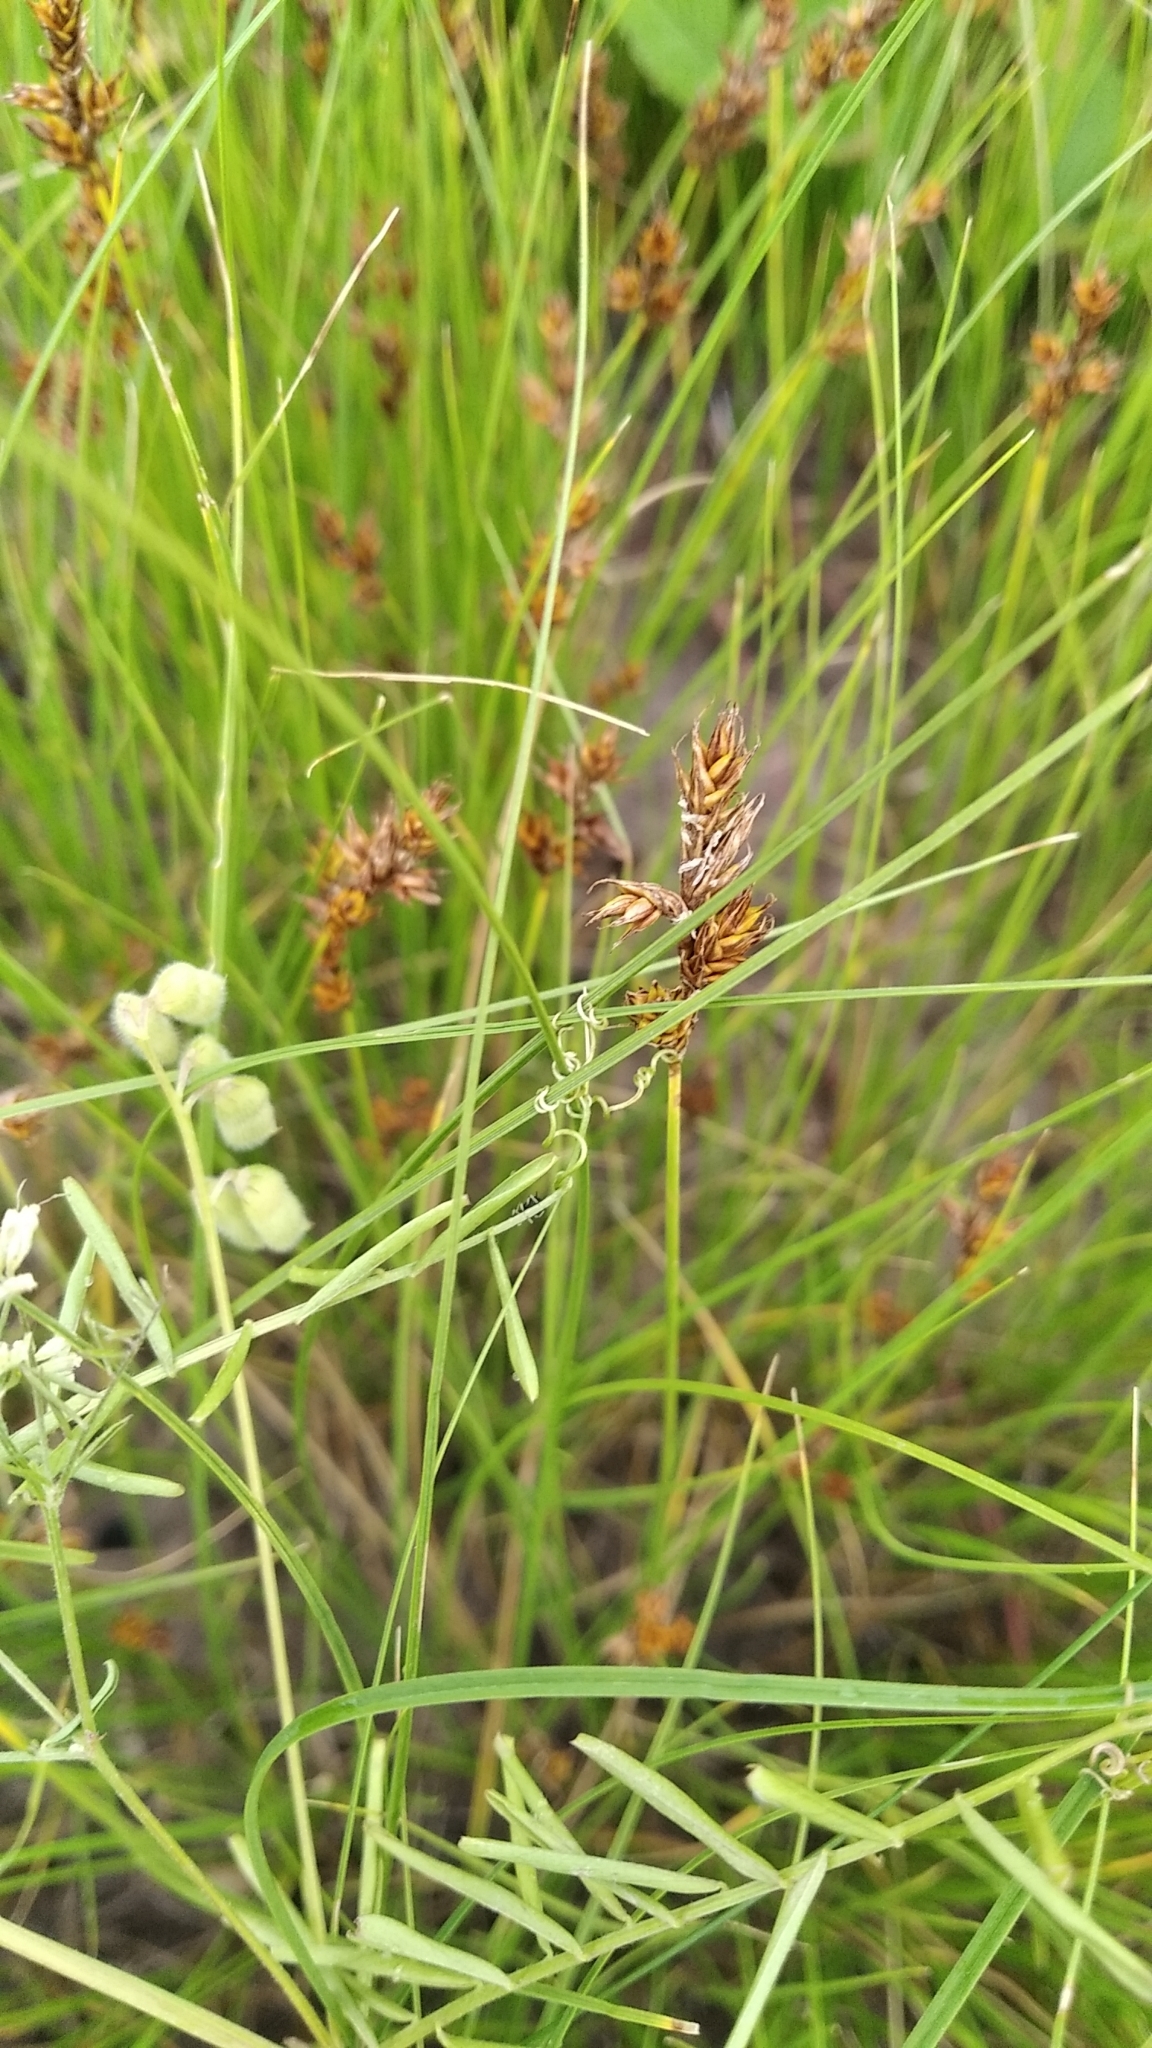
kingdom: Plantae
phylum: Tracheophyta
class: Liliopsida
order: Poales
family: Cyperaceae
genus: Carex
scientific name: Carex praecox
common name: Early sedge
